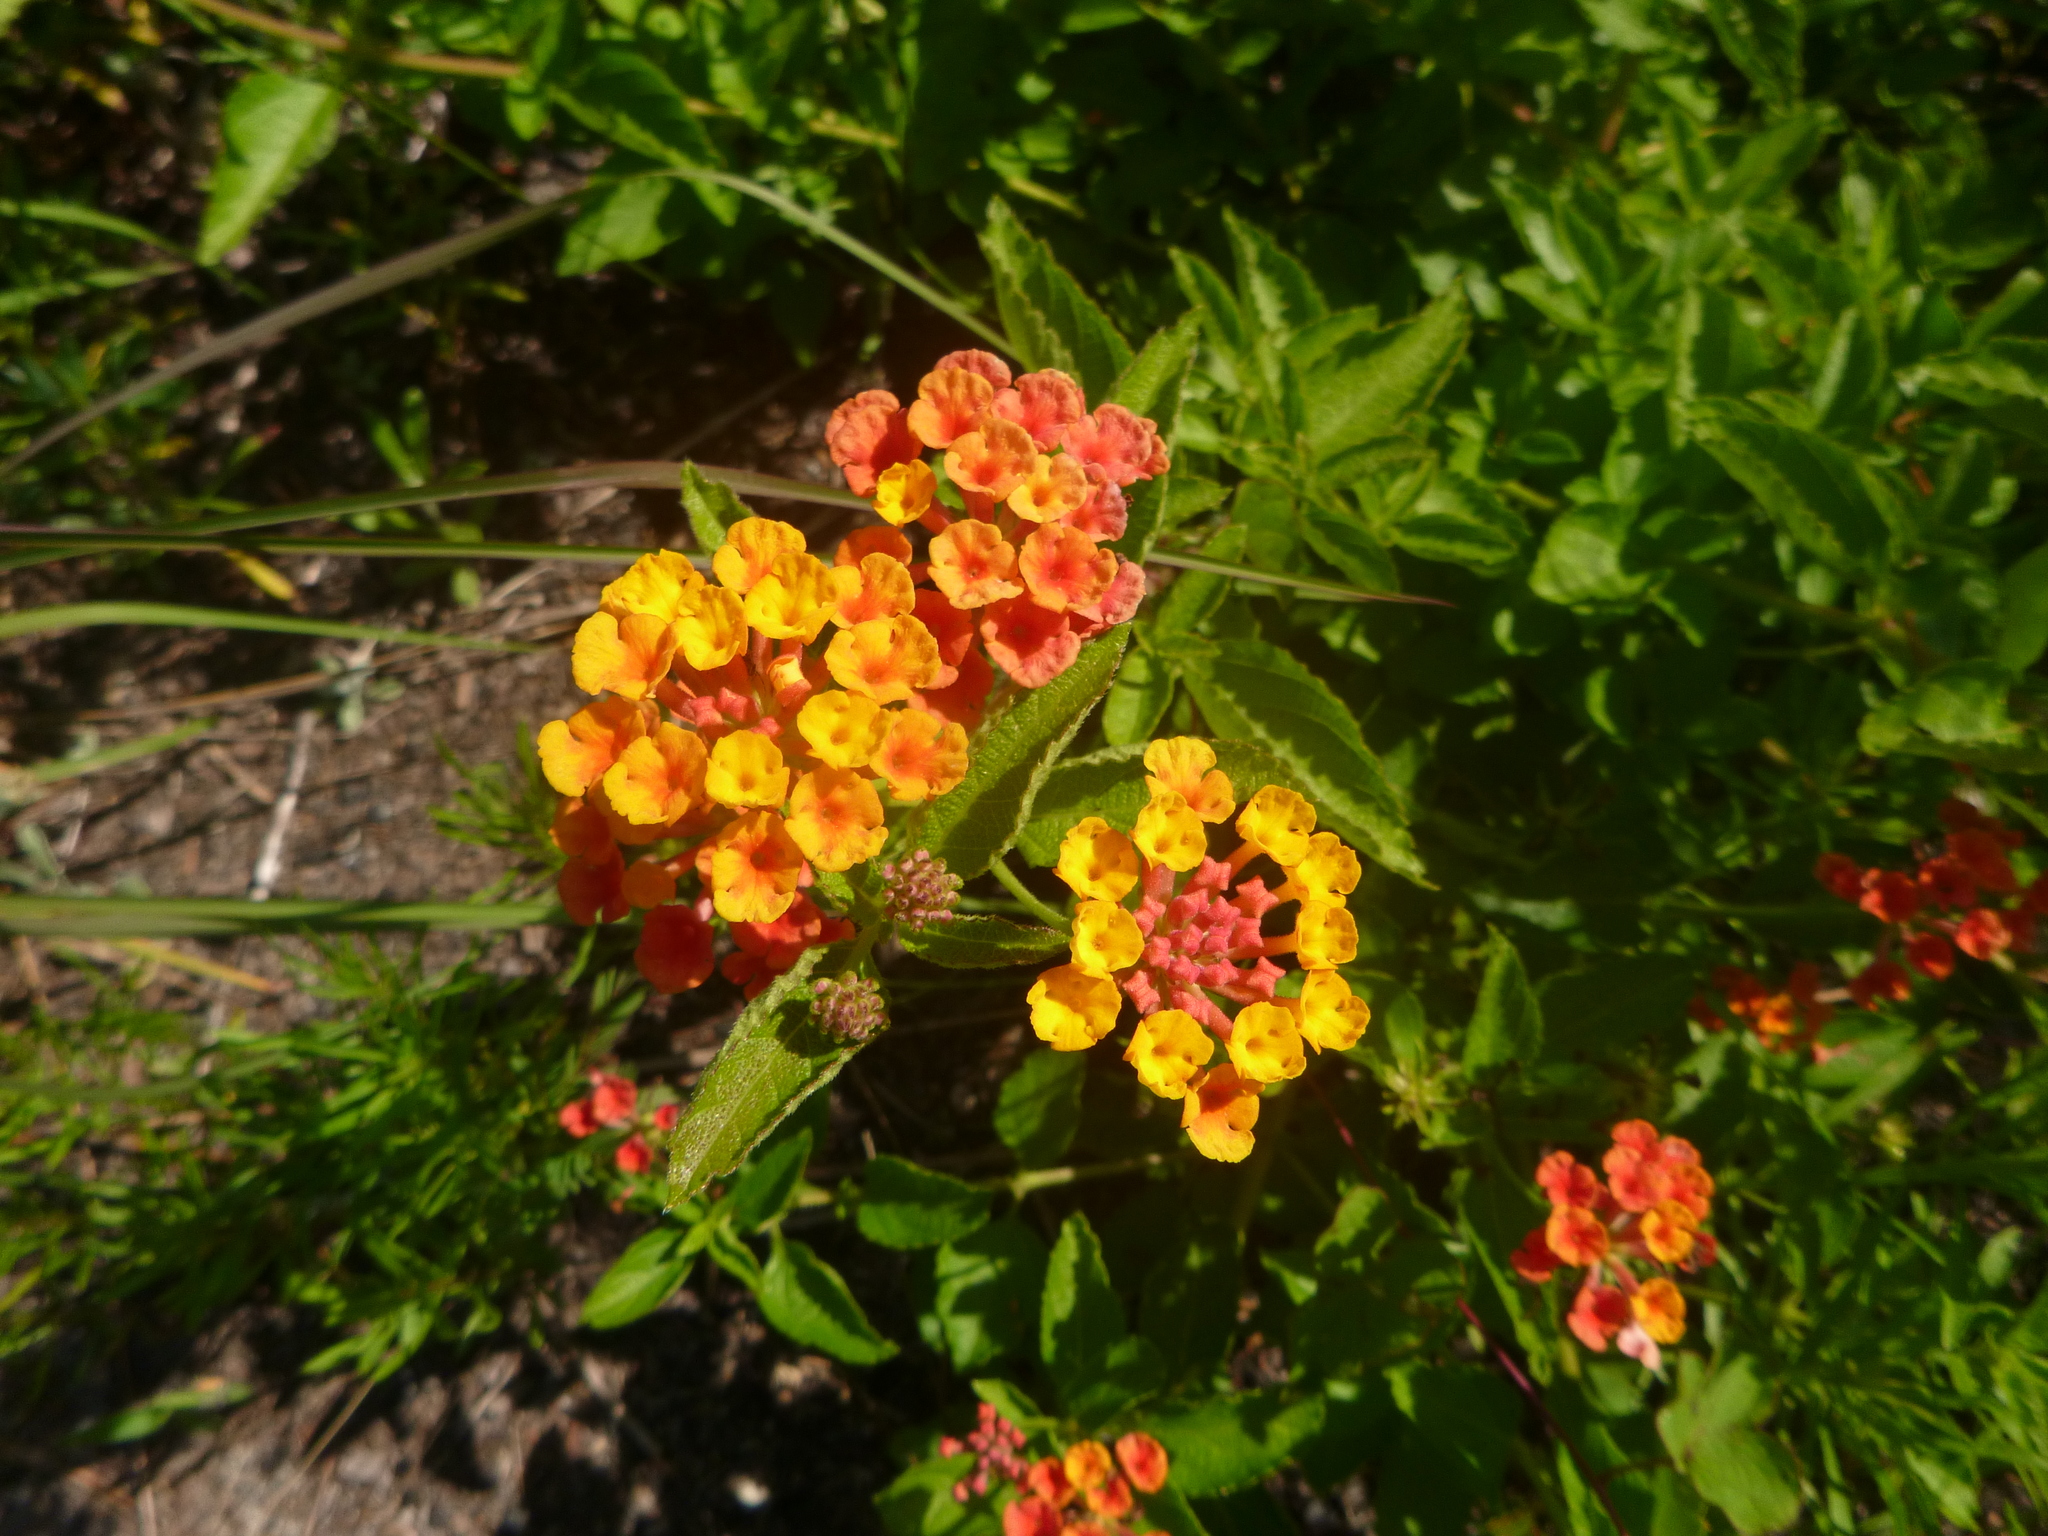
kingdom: Plantae
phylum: Tracheophyta
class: Magnoliopsida
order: Lamiales
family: Verbenaceae
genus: Lantana
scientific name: Lantana strigocamara
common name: Lantana
